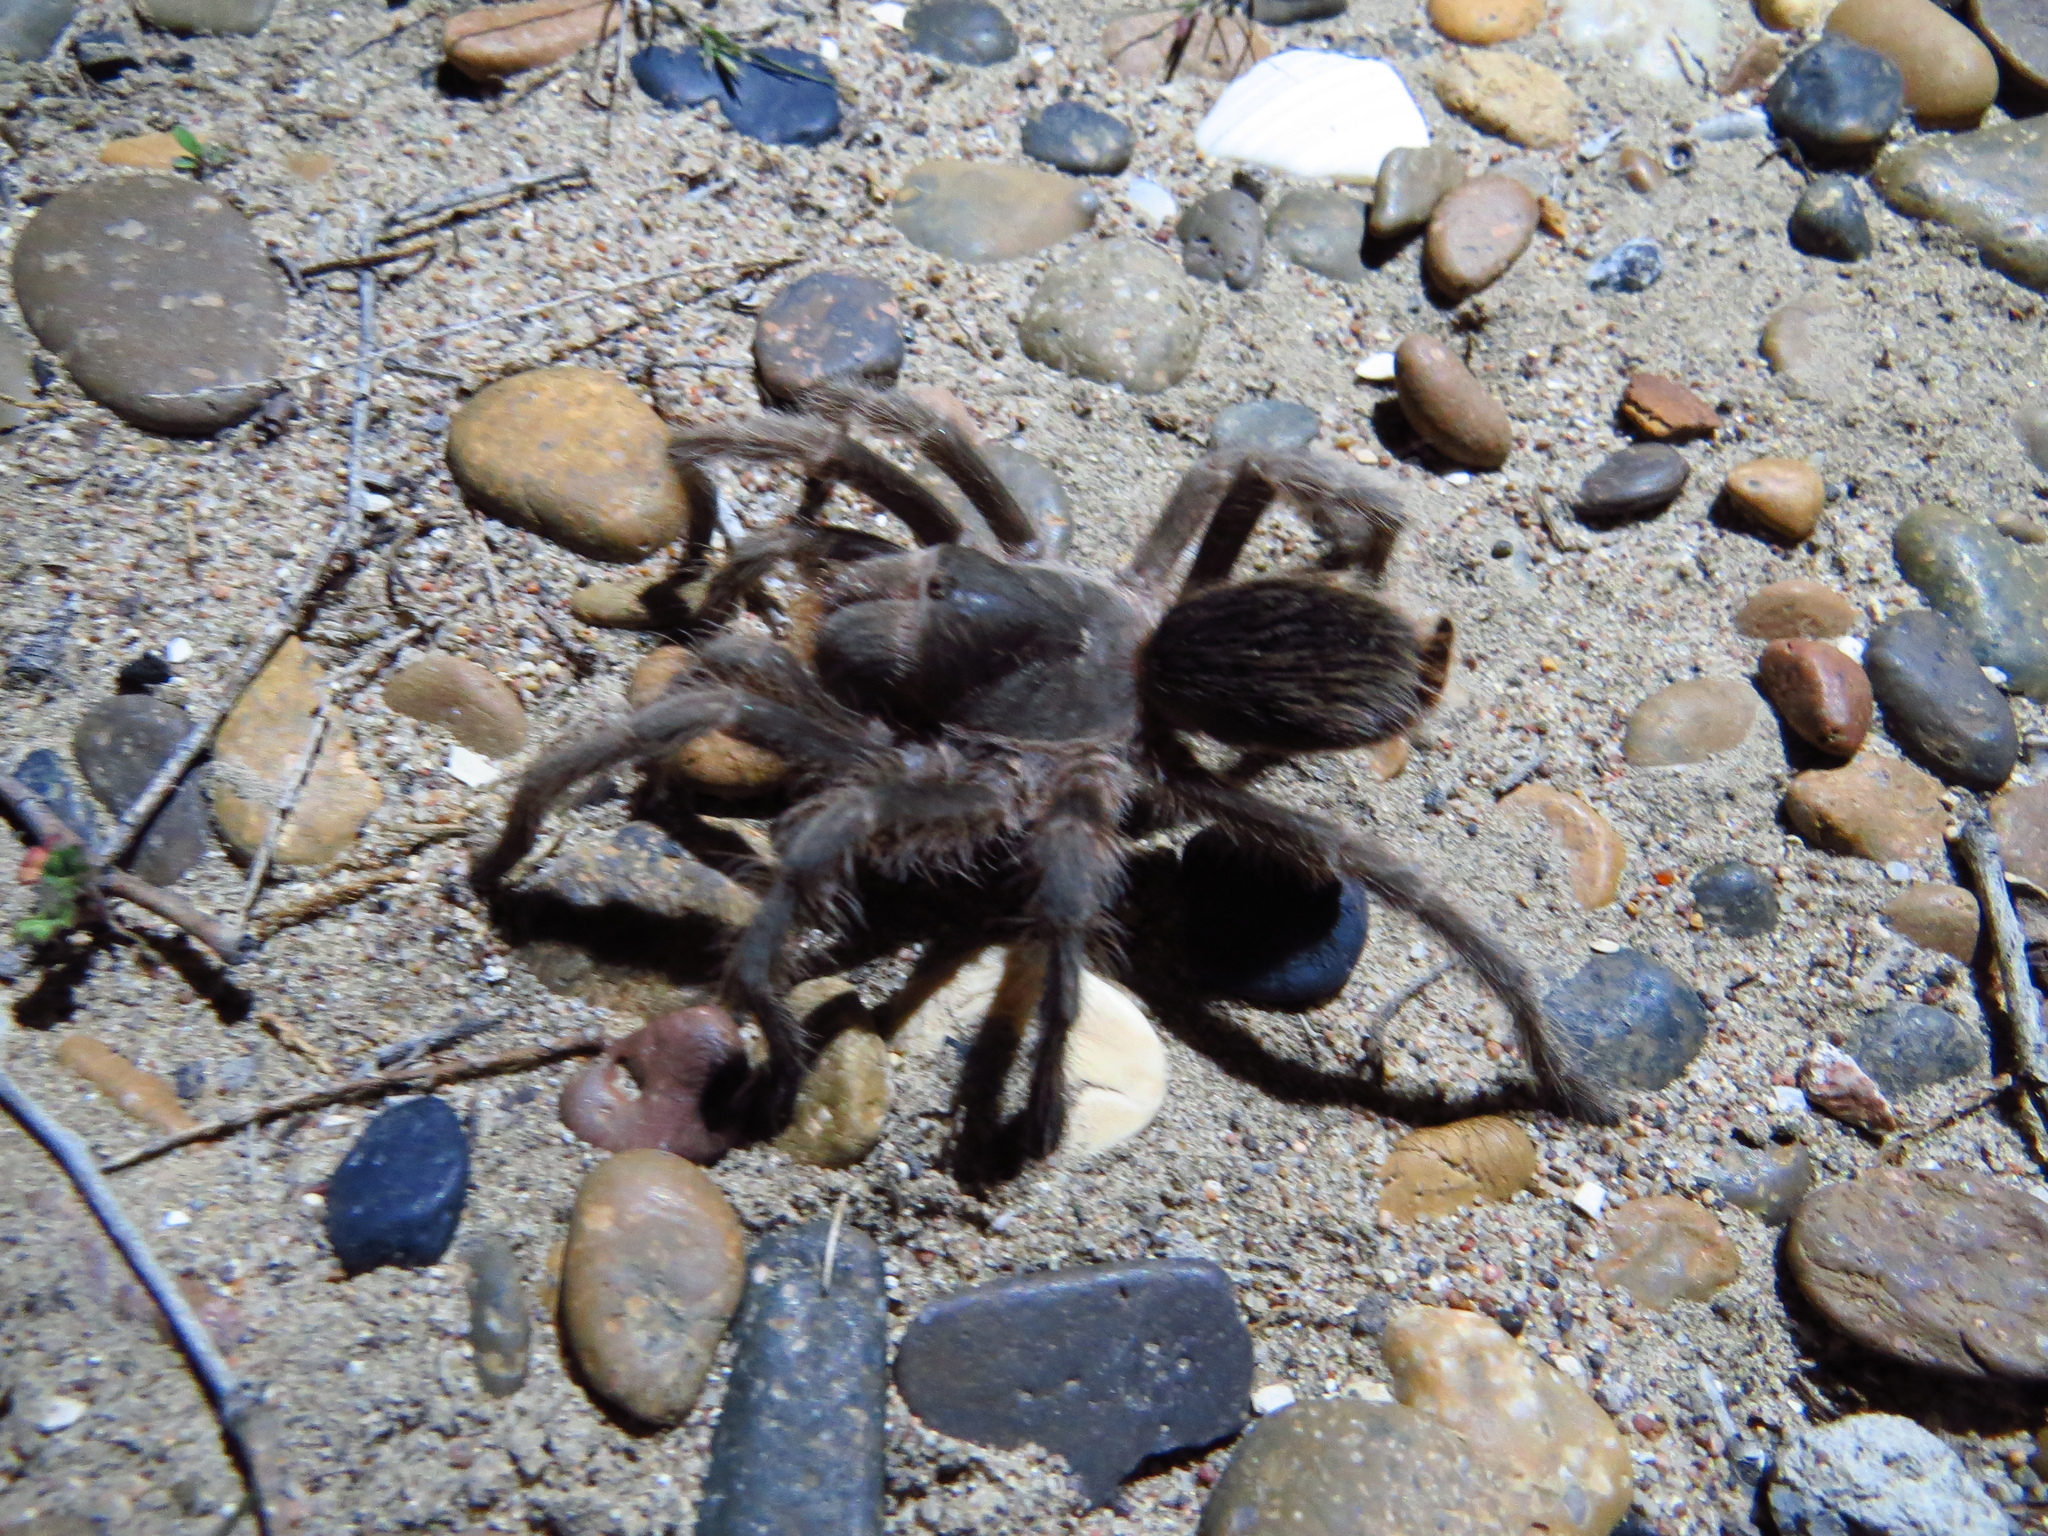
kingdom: Animalia
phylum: Arthropoda
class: Arachnida
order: Araneae
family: Theraphosidae
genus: Grammostola
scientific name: Grammostola doeringi
